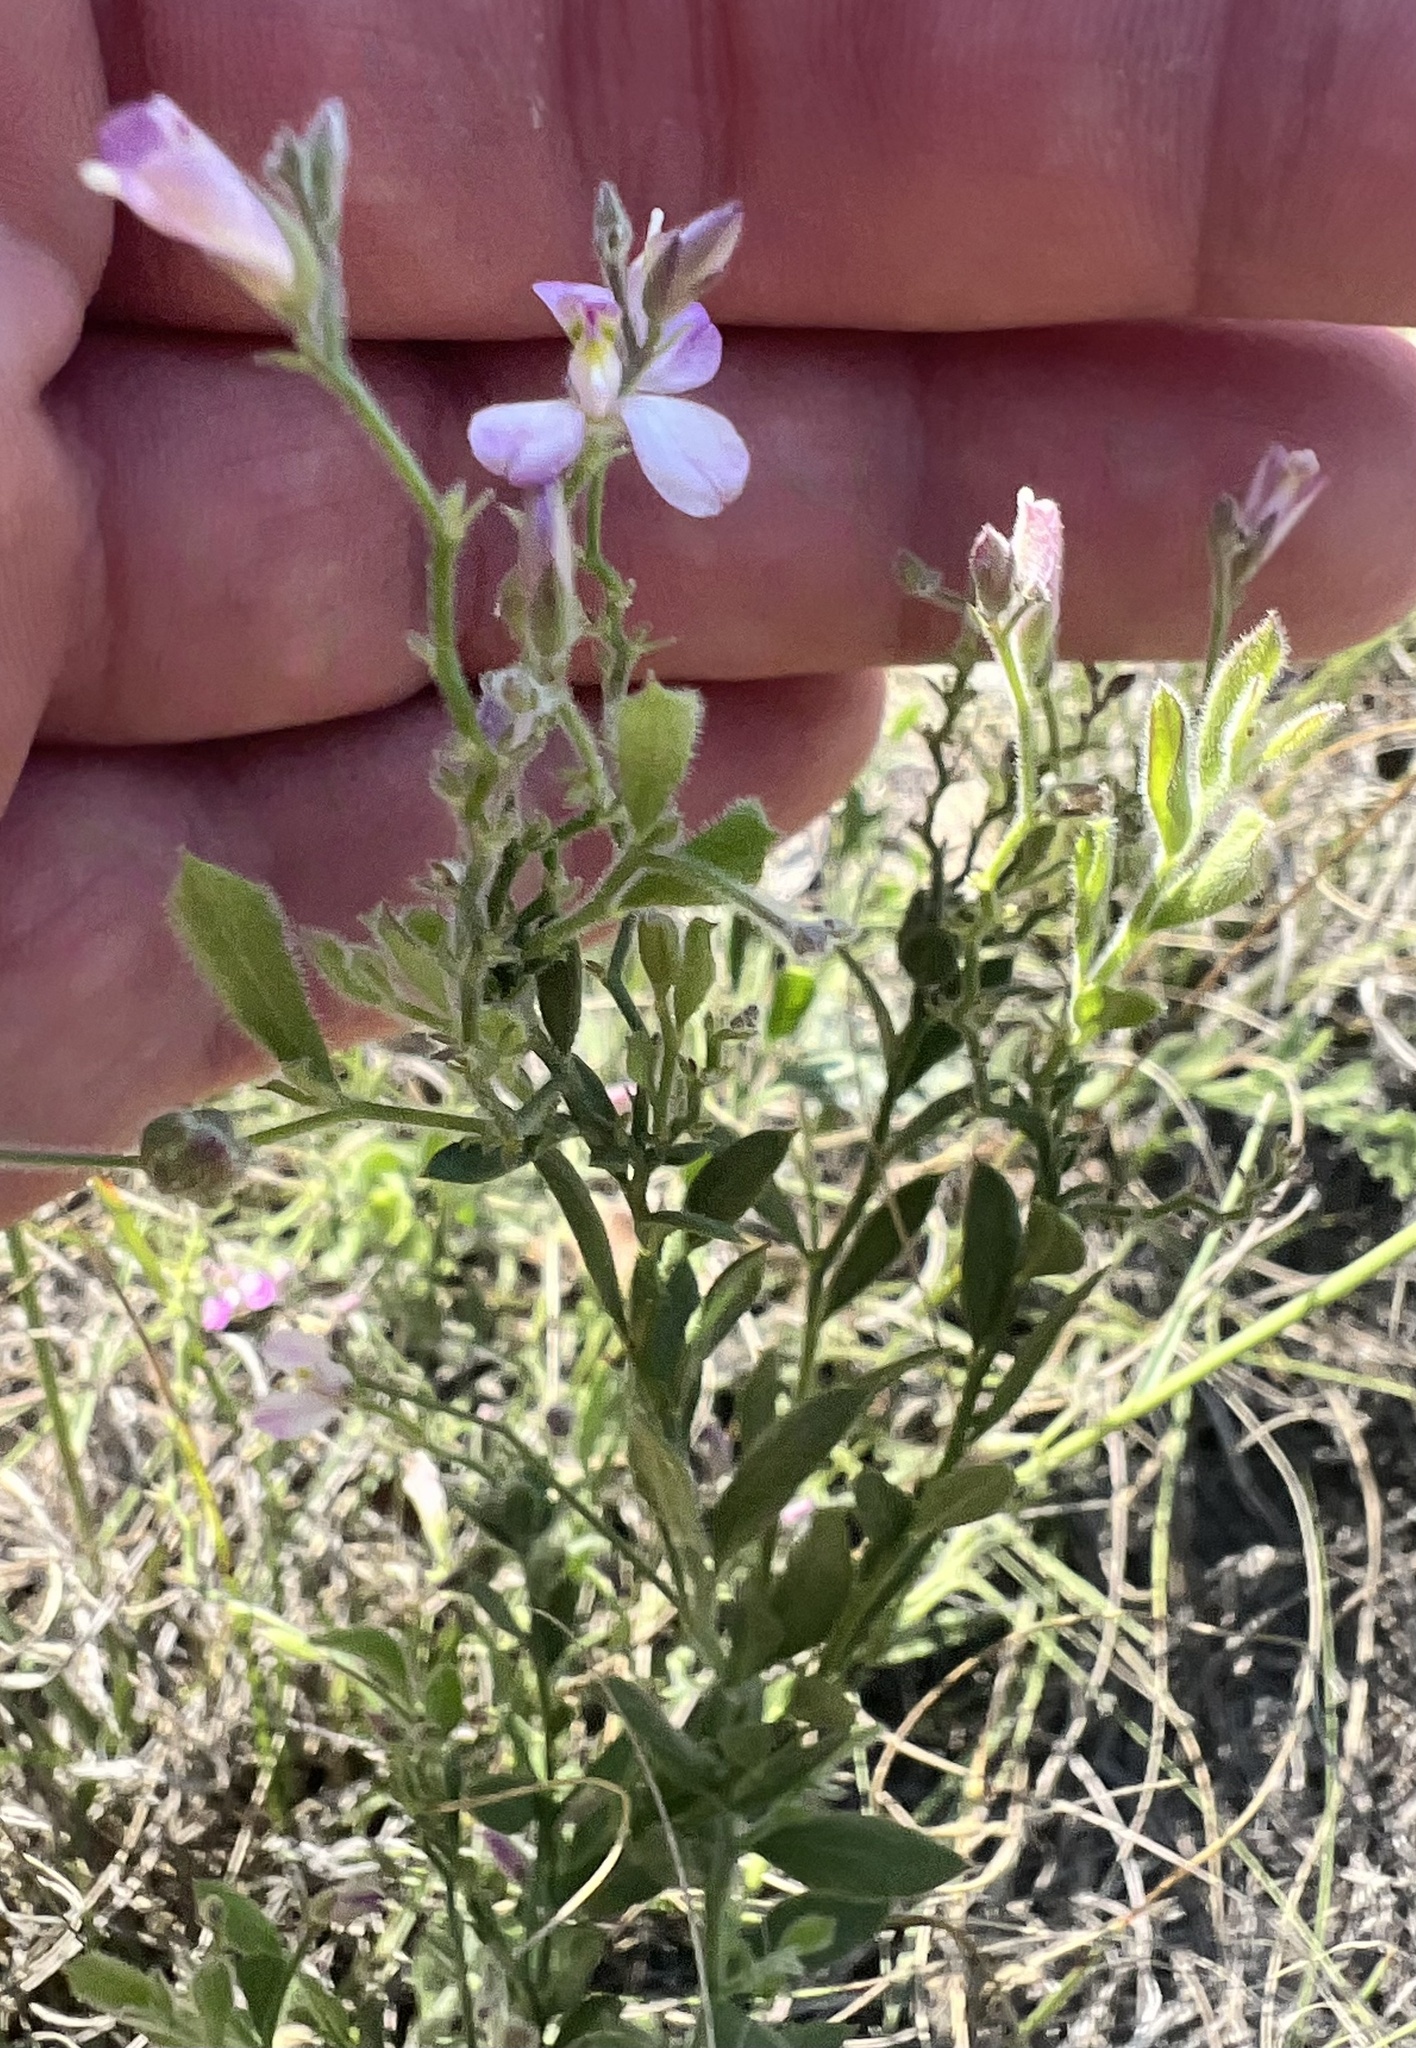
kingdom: Plantae
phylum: Tracheophyta
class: Magnoliopsida
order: Fabales
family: Polygalaceae
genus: Rhinotropis
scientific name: Rhinotropis lindheimeri
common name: Shrubby milkwort
